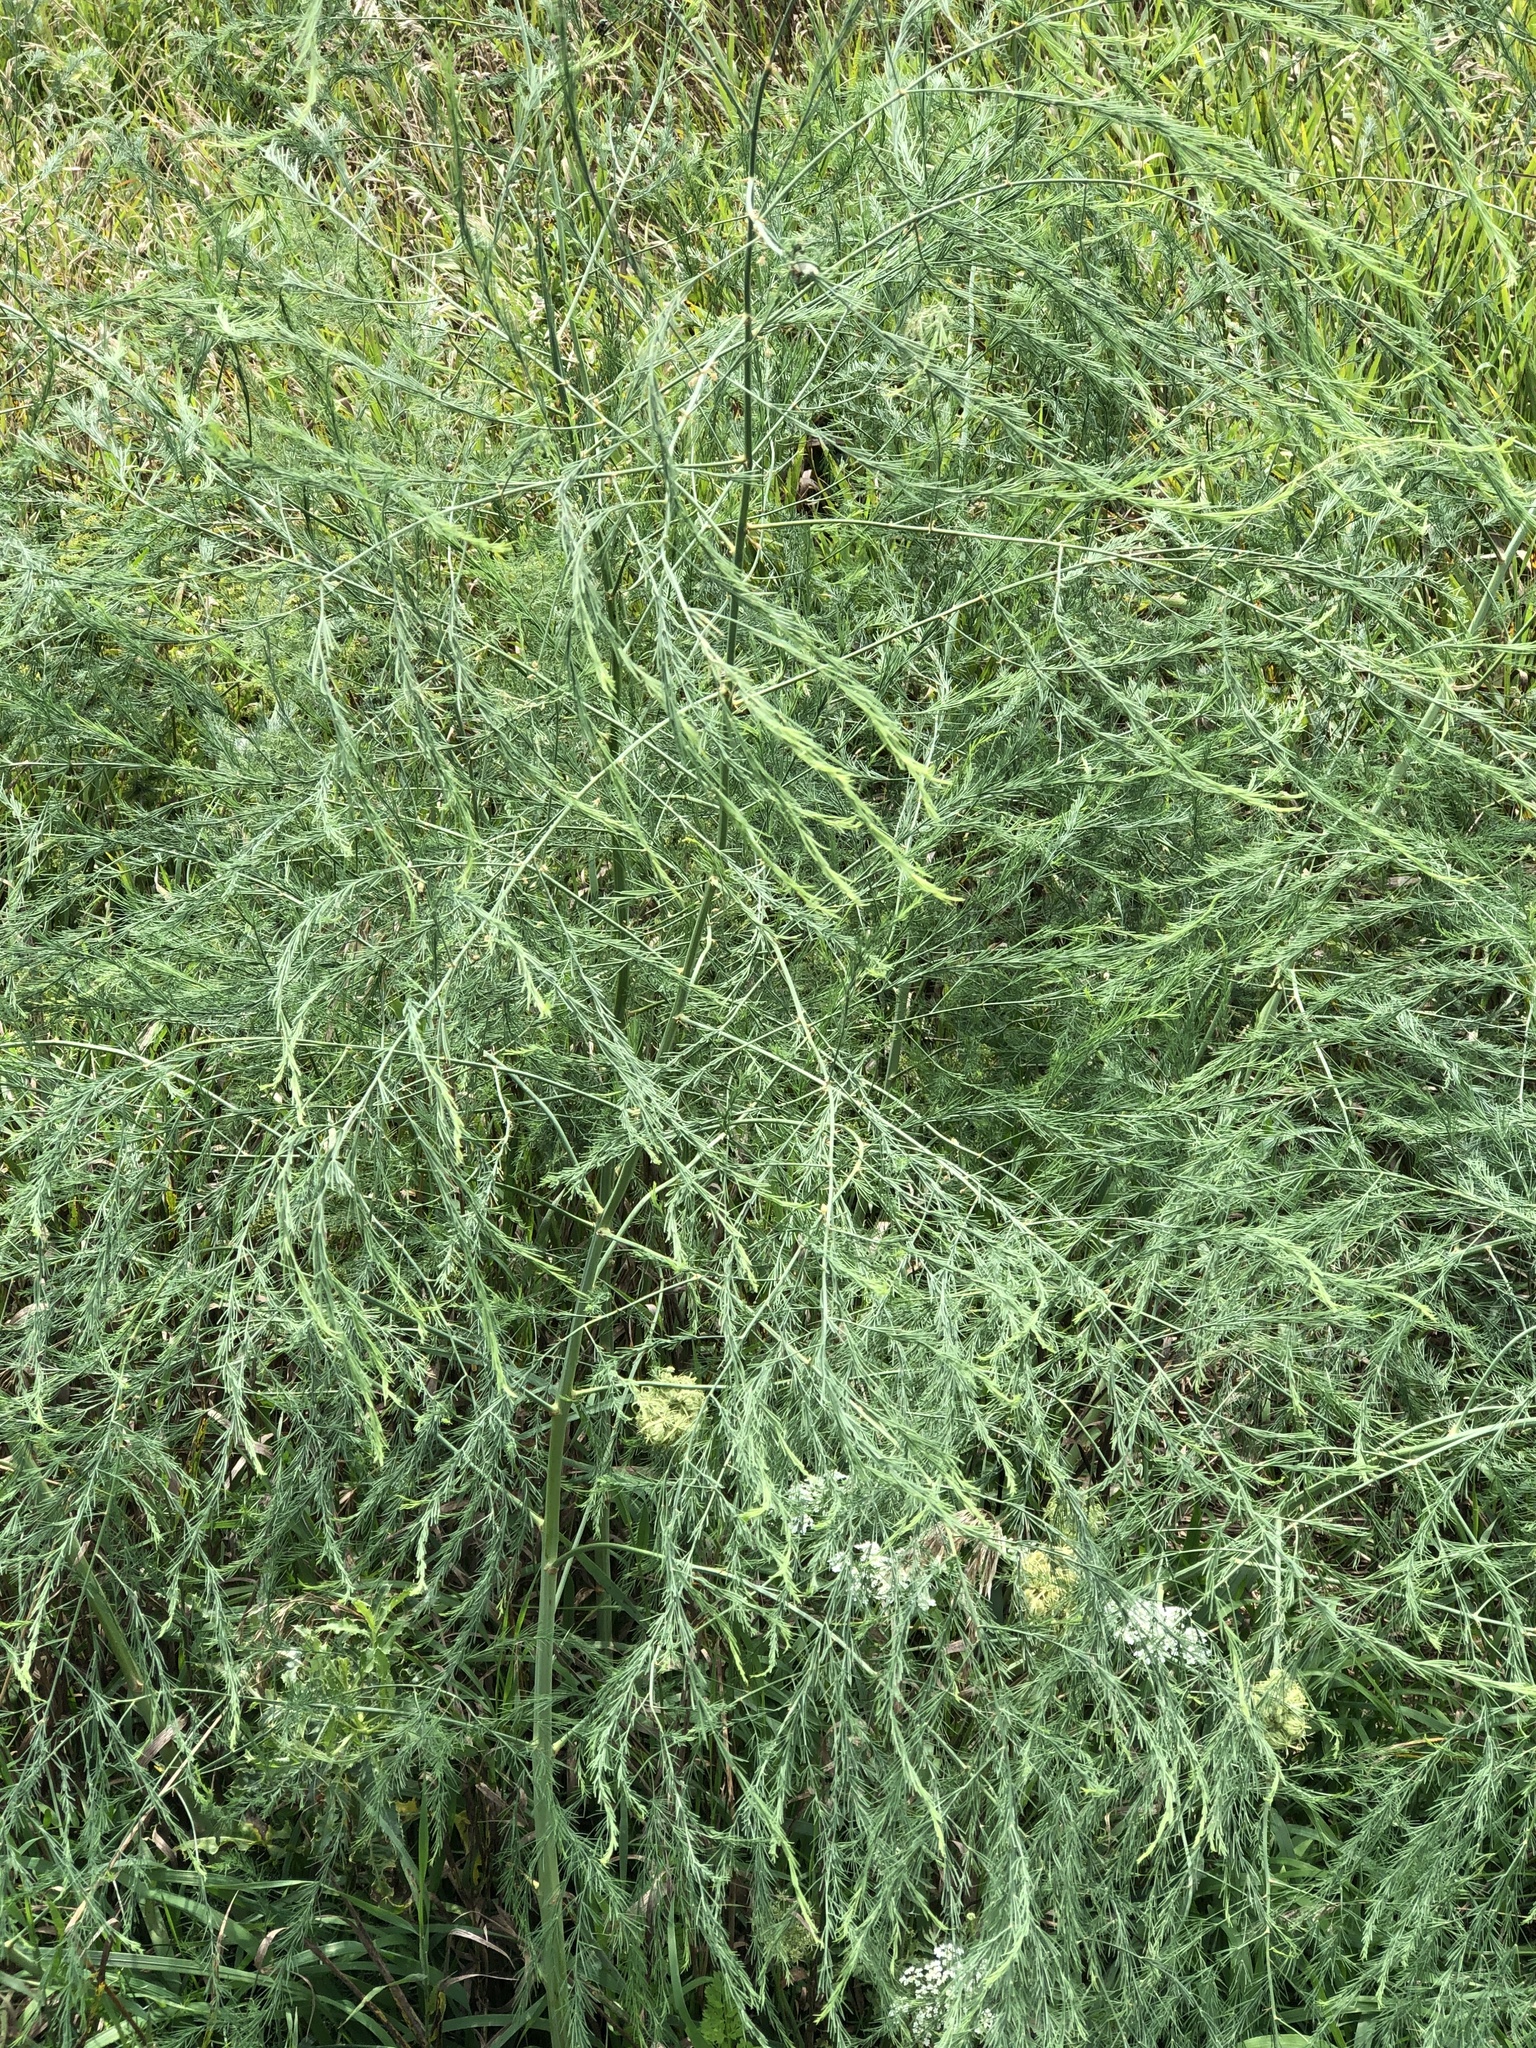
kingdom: Plantae
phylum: Tracheophyta
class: Liliopsida
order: Asparagales
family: Asparagaceae
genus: Asparagus
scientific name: Asparagus officinalis
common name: Garden asparagus
